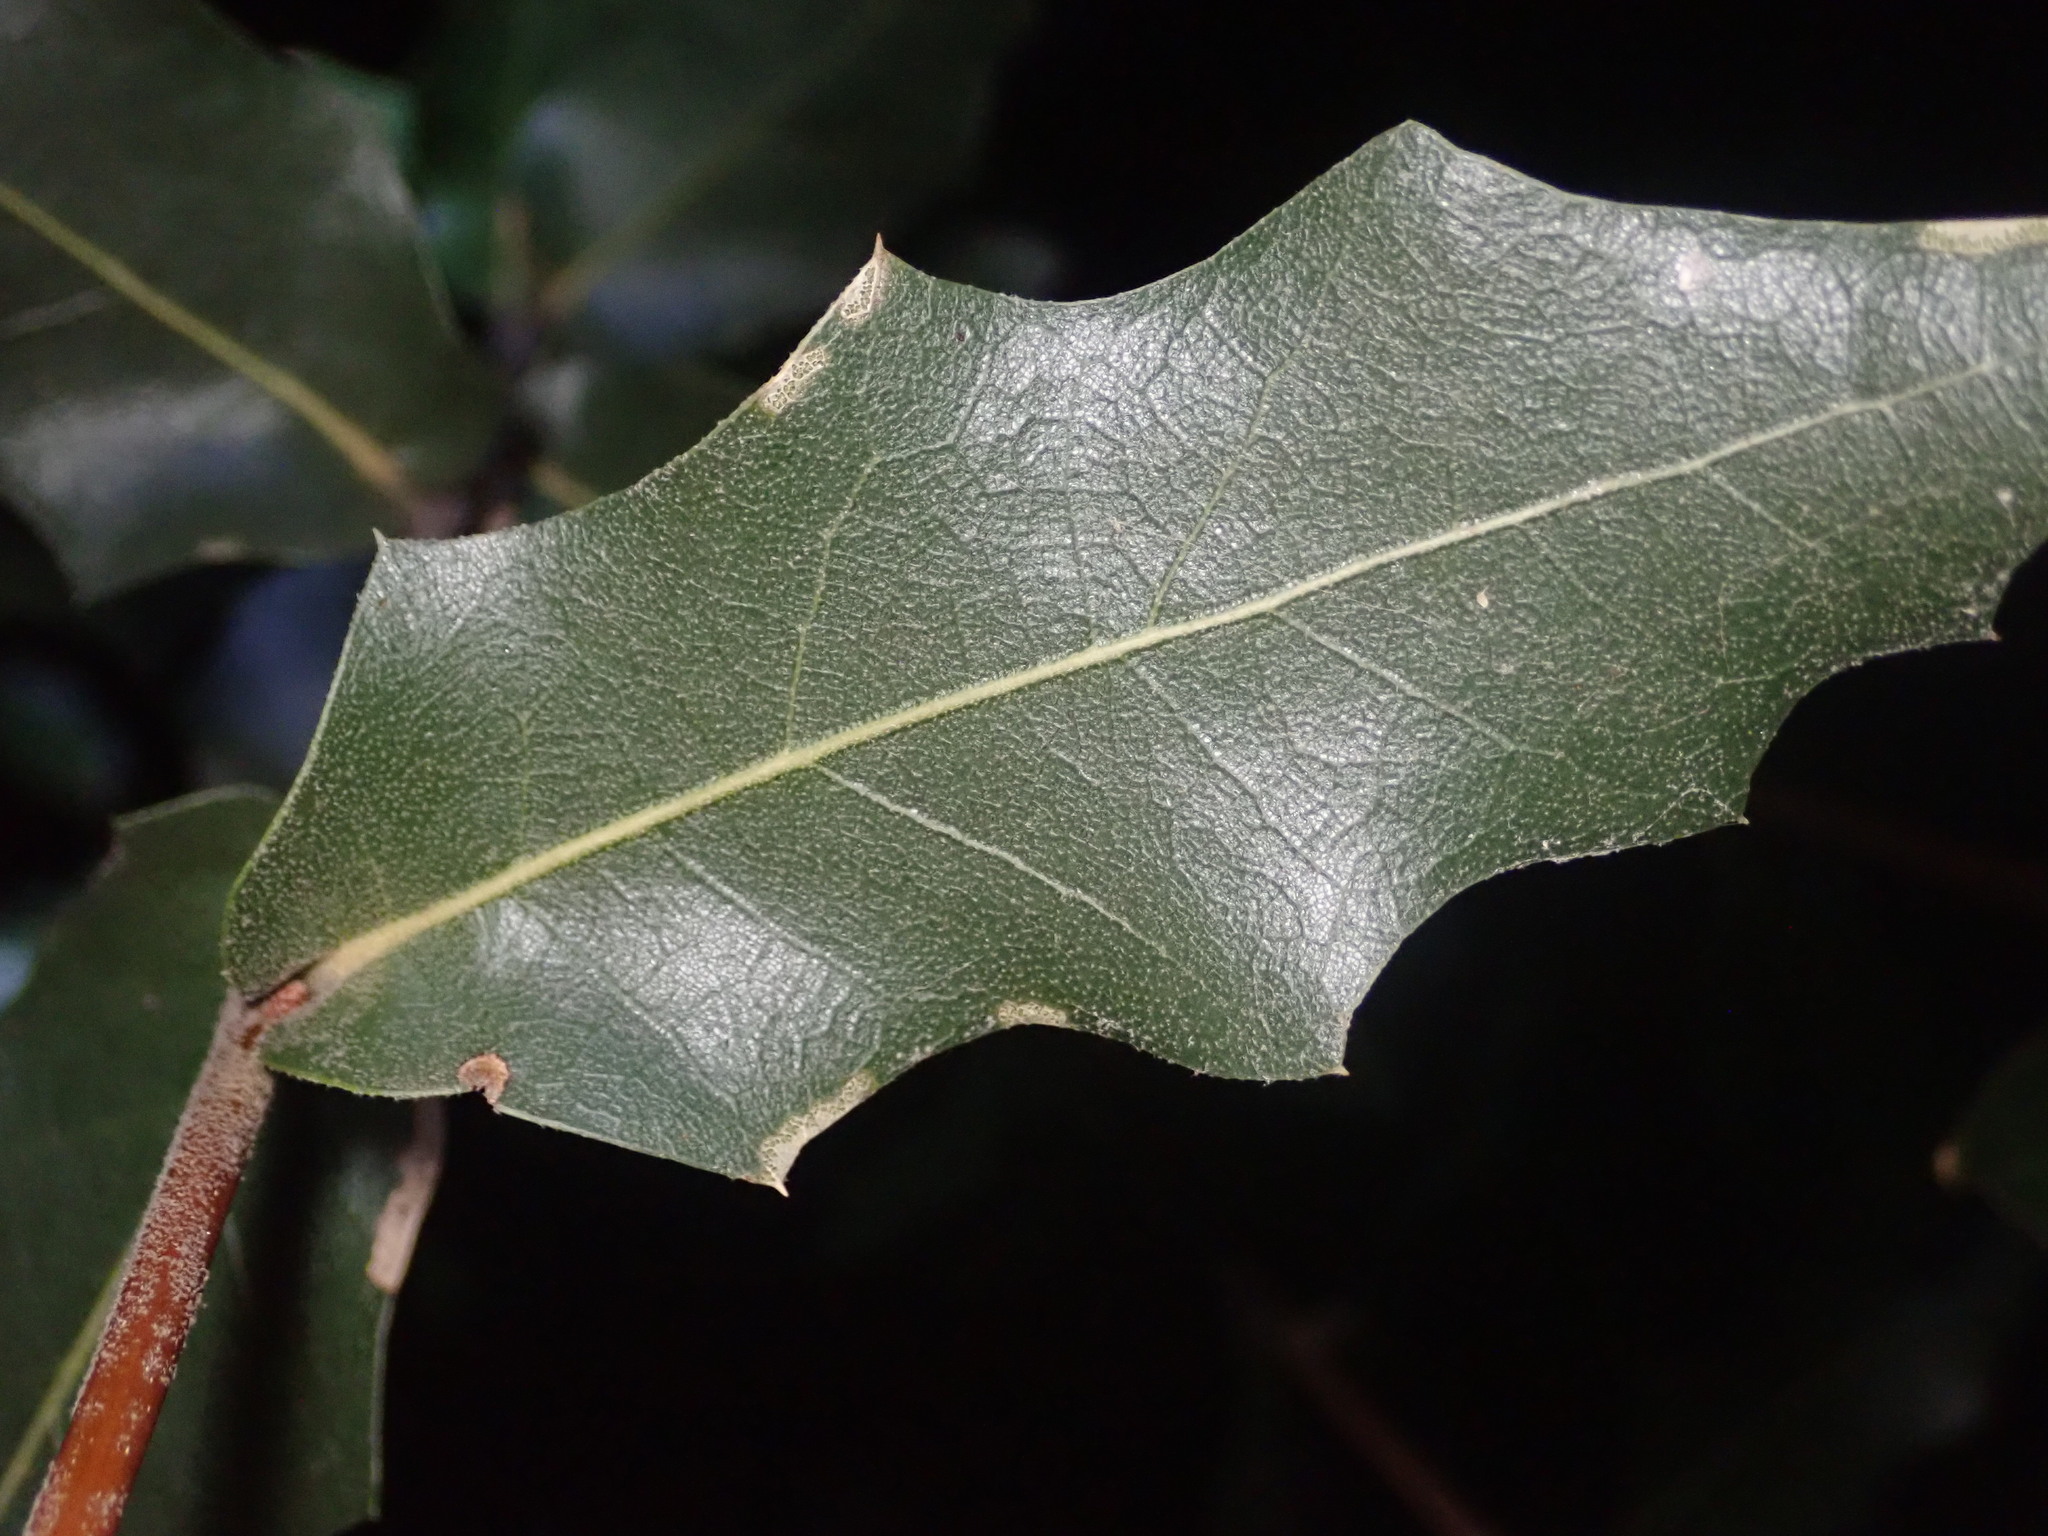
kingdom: Plantae
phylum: Tracheophyta
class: Magnoliopsida
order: Fagales
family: Fagaceae
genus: Quercus
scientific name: Quercus emoryi
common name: Emory oak
